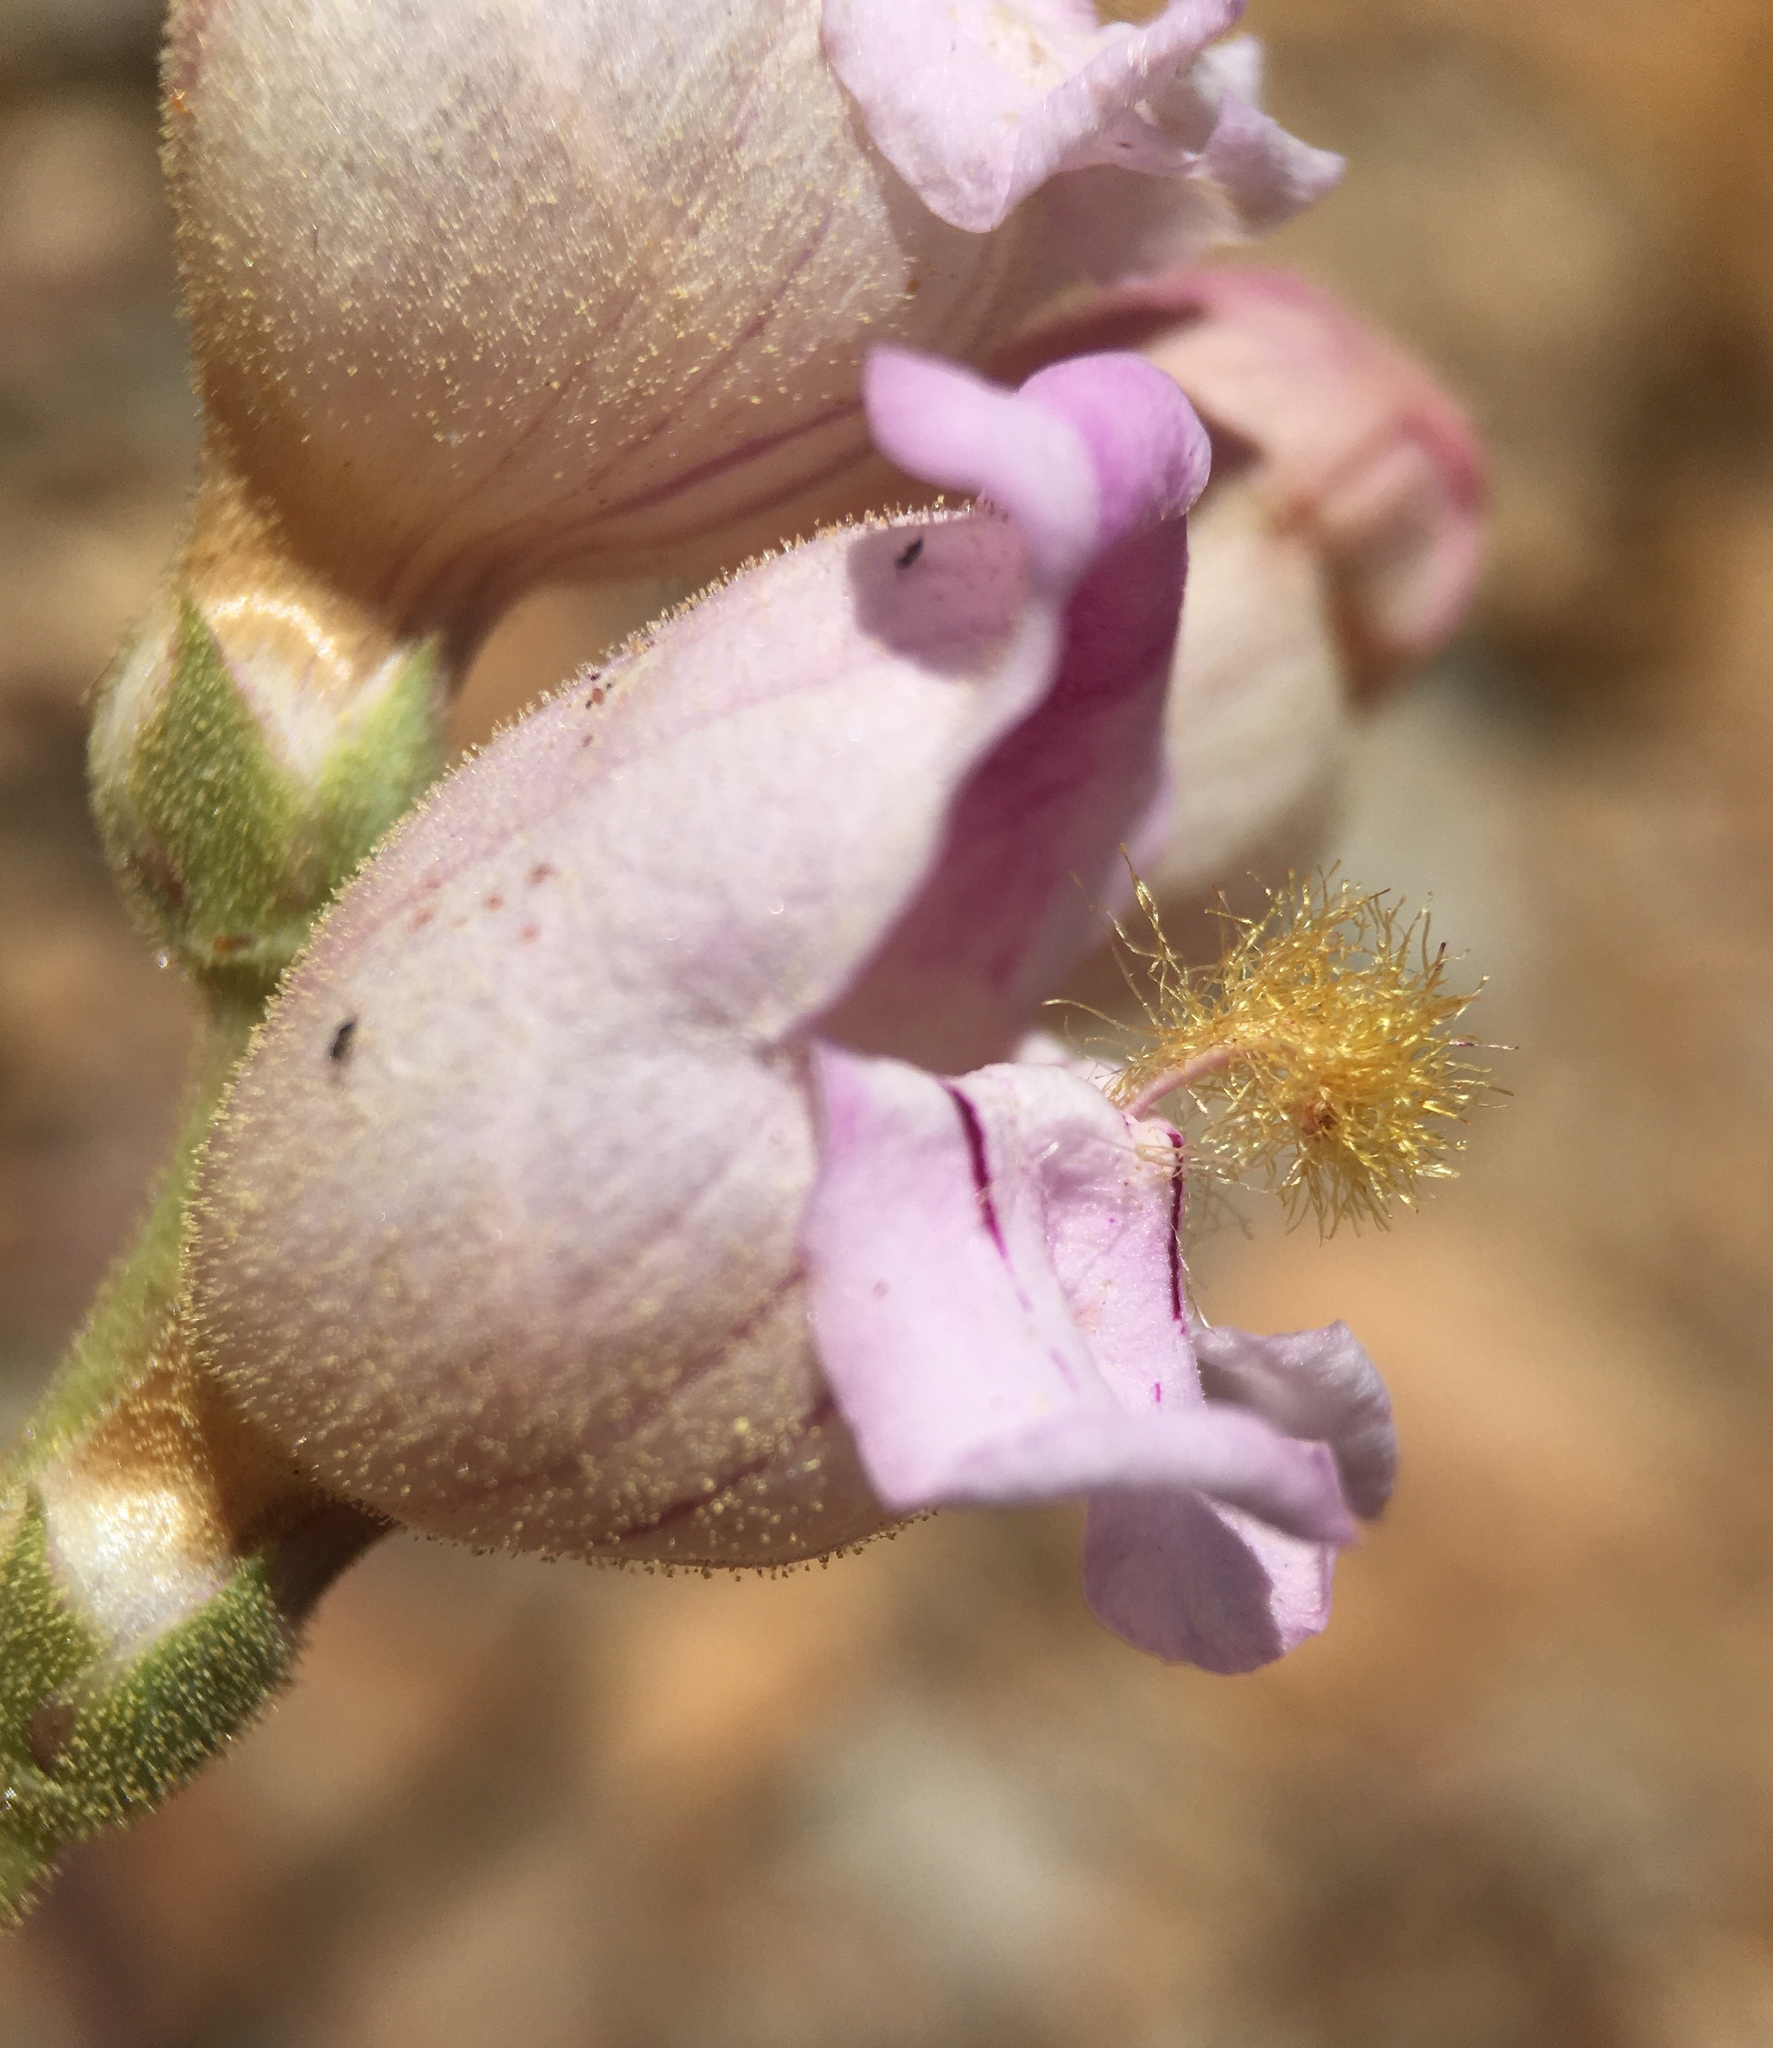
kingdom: Plantae
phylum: Tracheophyta
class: Magnoliopsida
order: Lamiales
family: Plantaginaceae
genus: Penstemon
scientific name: Penstemon palmeri
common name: Palmer penstemon
